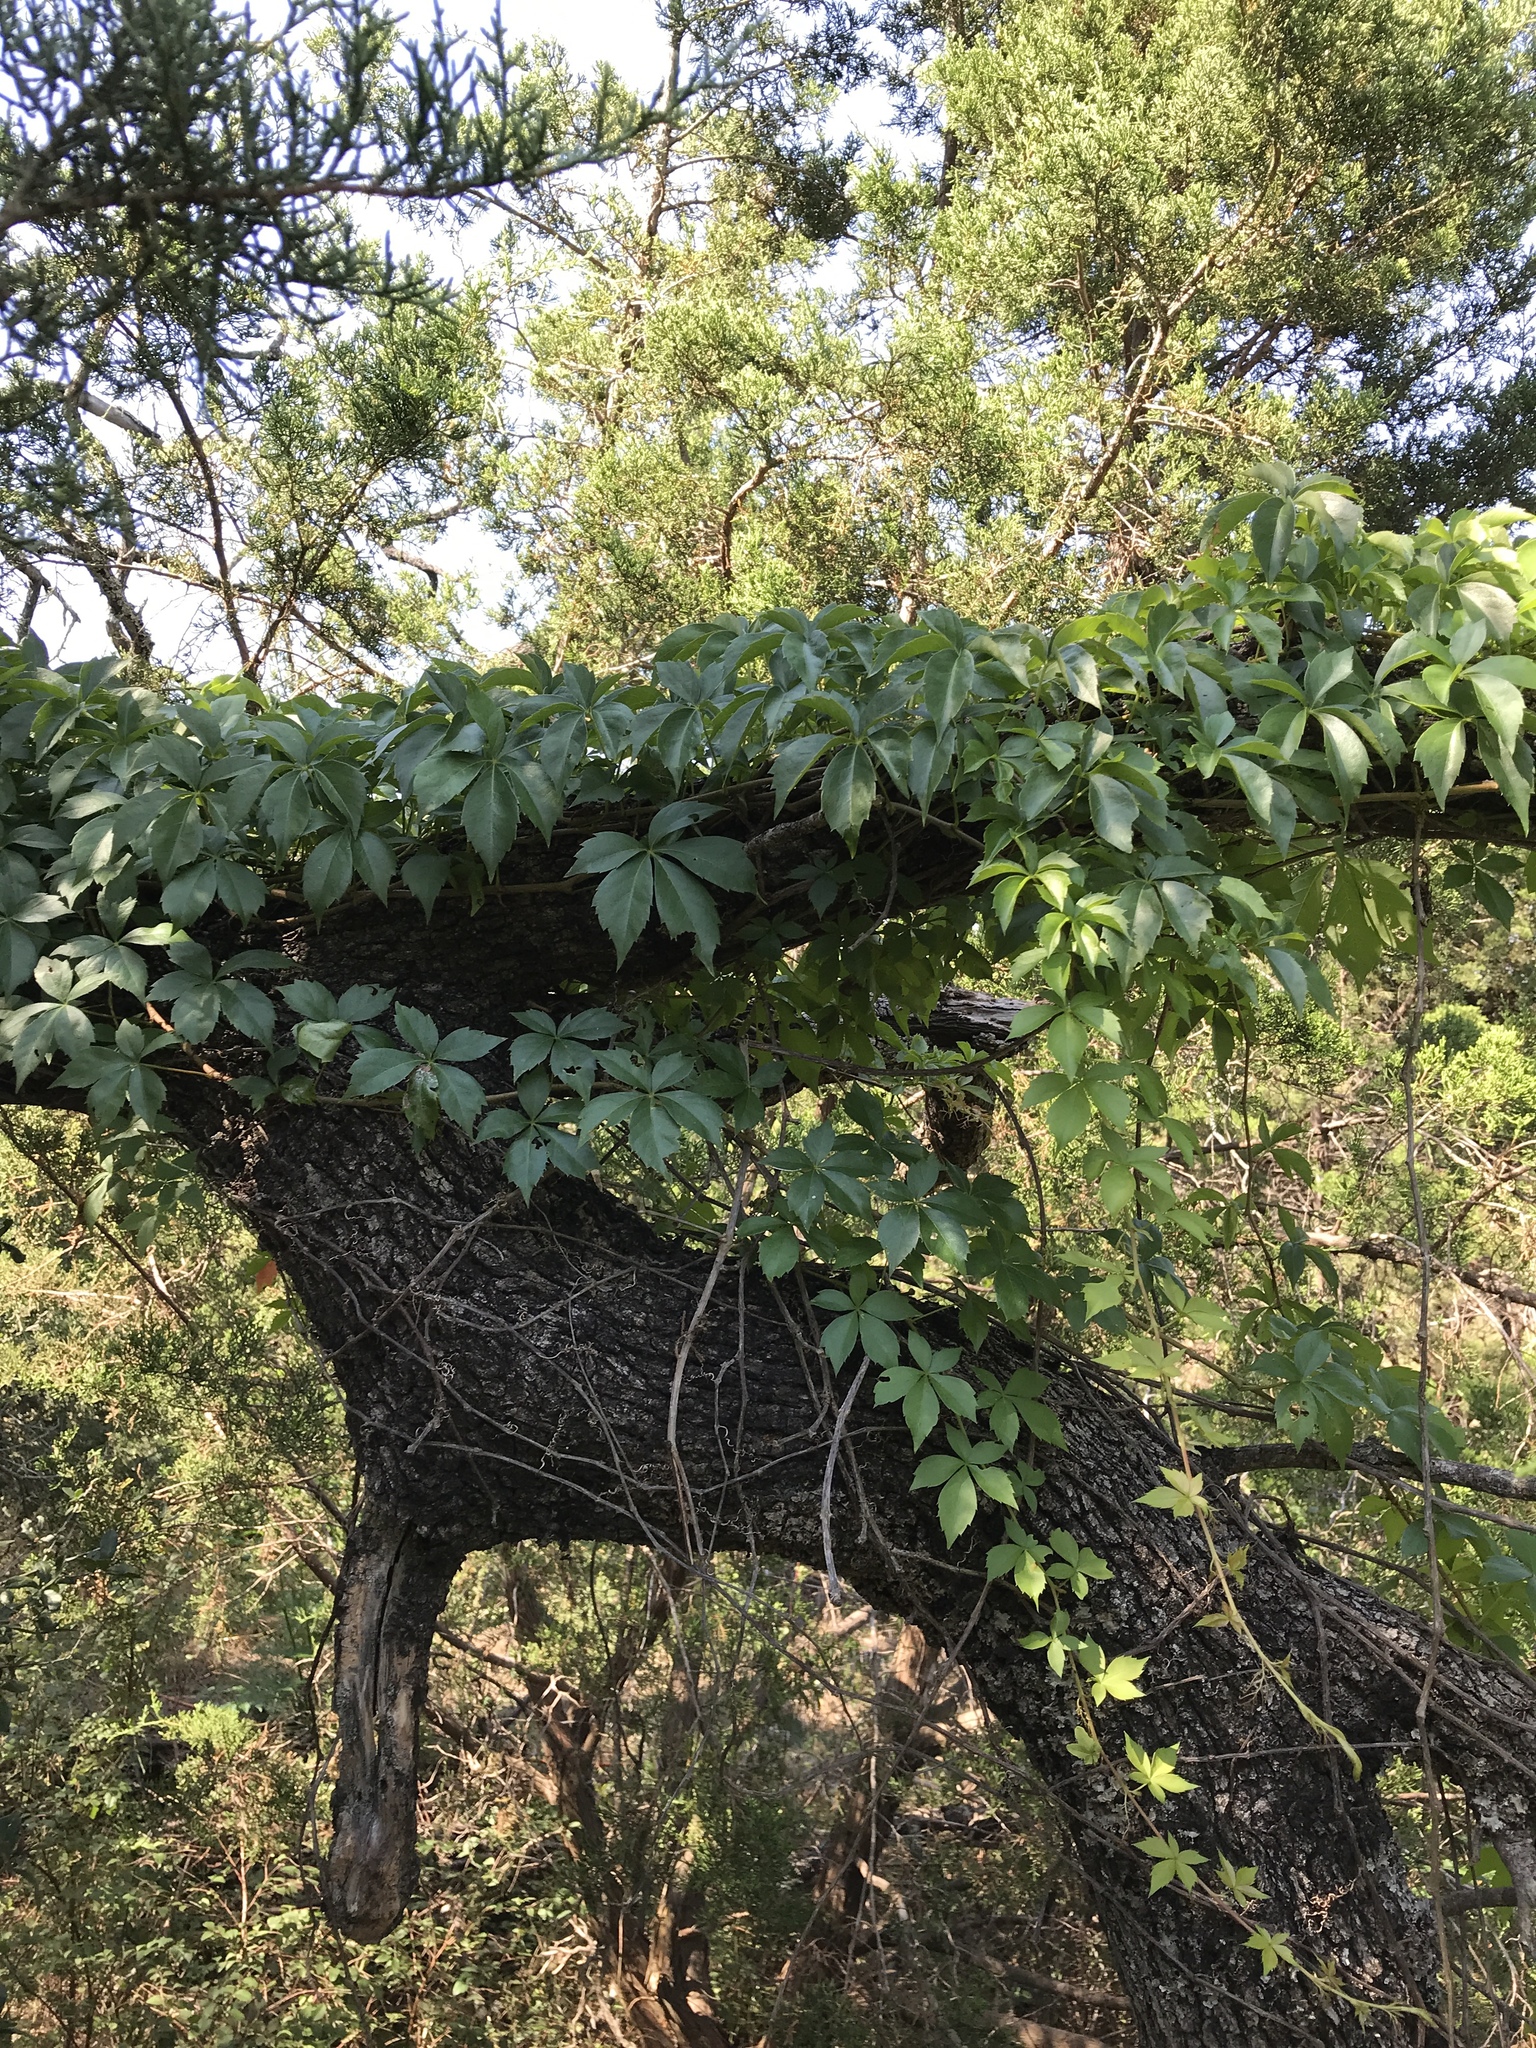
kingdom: Plantae
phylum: Tracheophyta
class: Magnoliopsida
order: Vitales
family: Vitaceae
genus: Parthenocissus
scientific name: Parthenocissus quinquefolia
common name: Virginia-creeper
